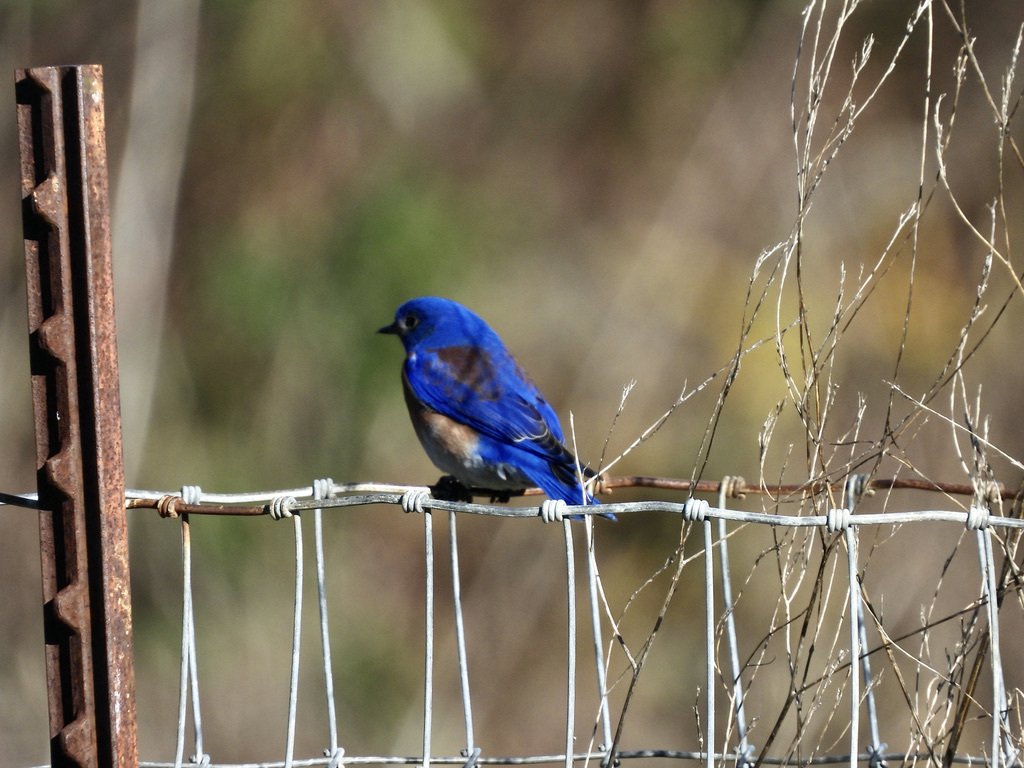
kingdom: Animalia
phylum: Chordata
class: Aves
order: Passeriformes
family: Turdidae
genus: Sialia
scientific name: Sialia mexicana
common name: Western bluebird
